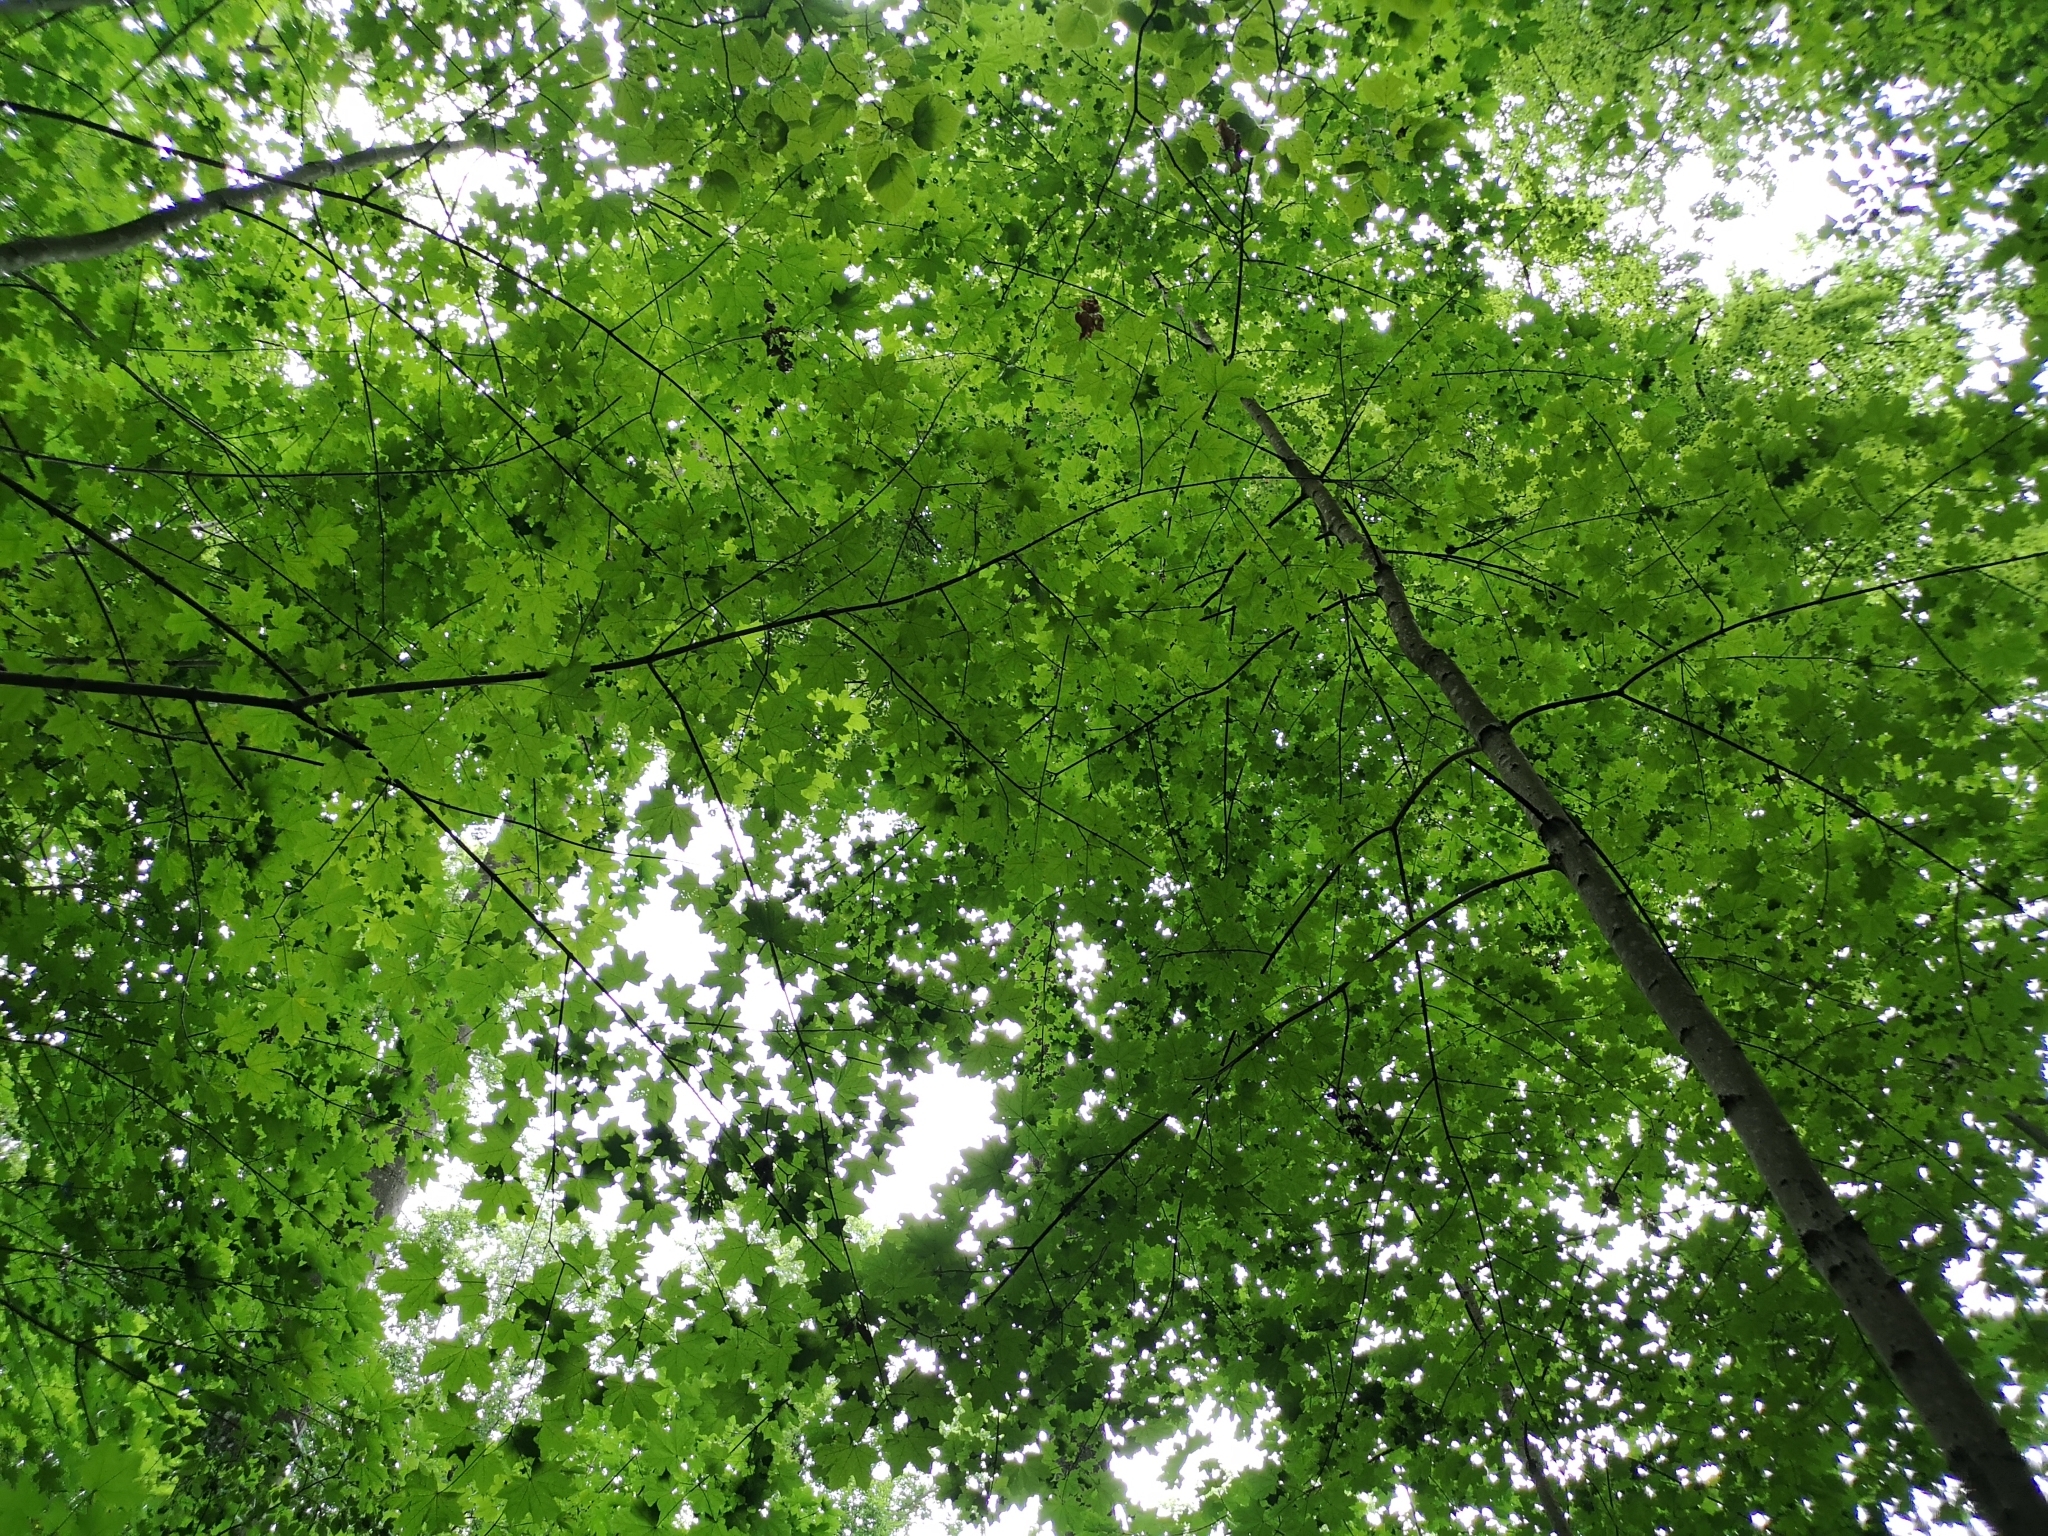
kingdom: Plantae
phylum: Tracheophyta
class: Magnoliopsida
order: Sapindales
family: Sapindaceae
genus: Acer
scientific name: Acer platanoides
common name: Norway maple
